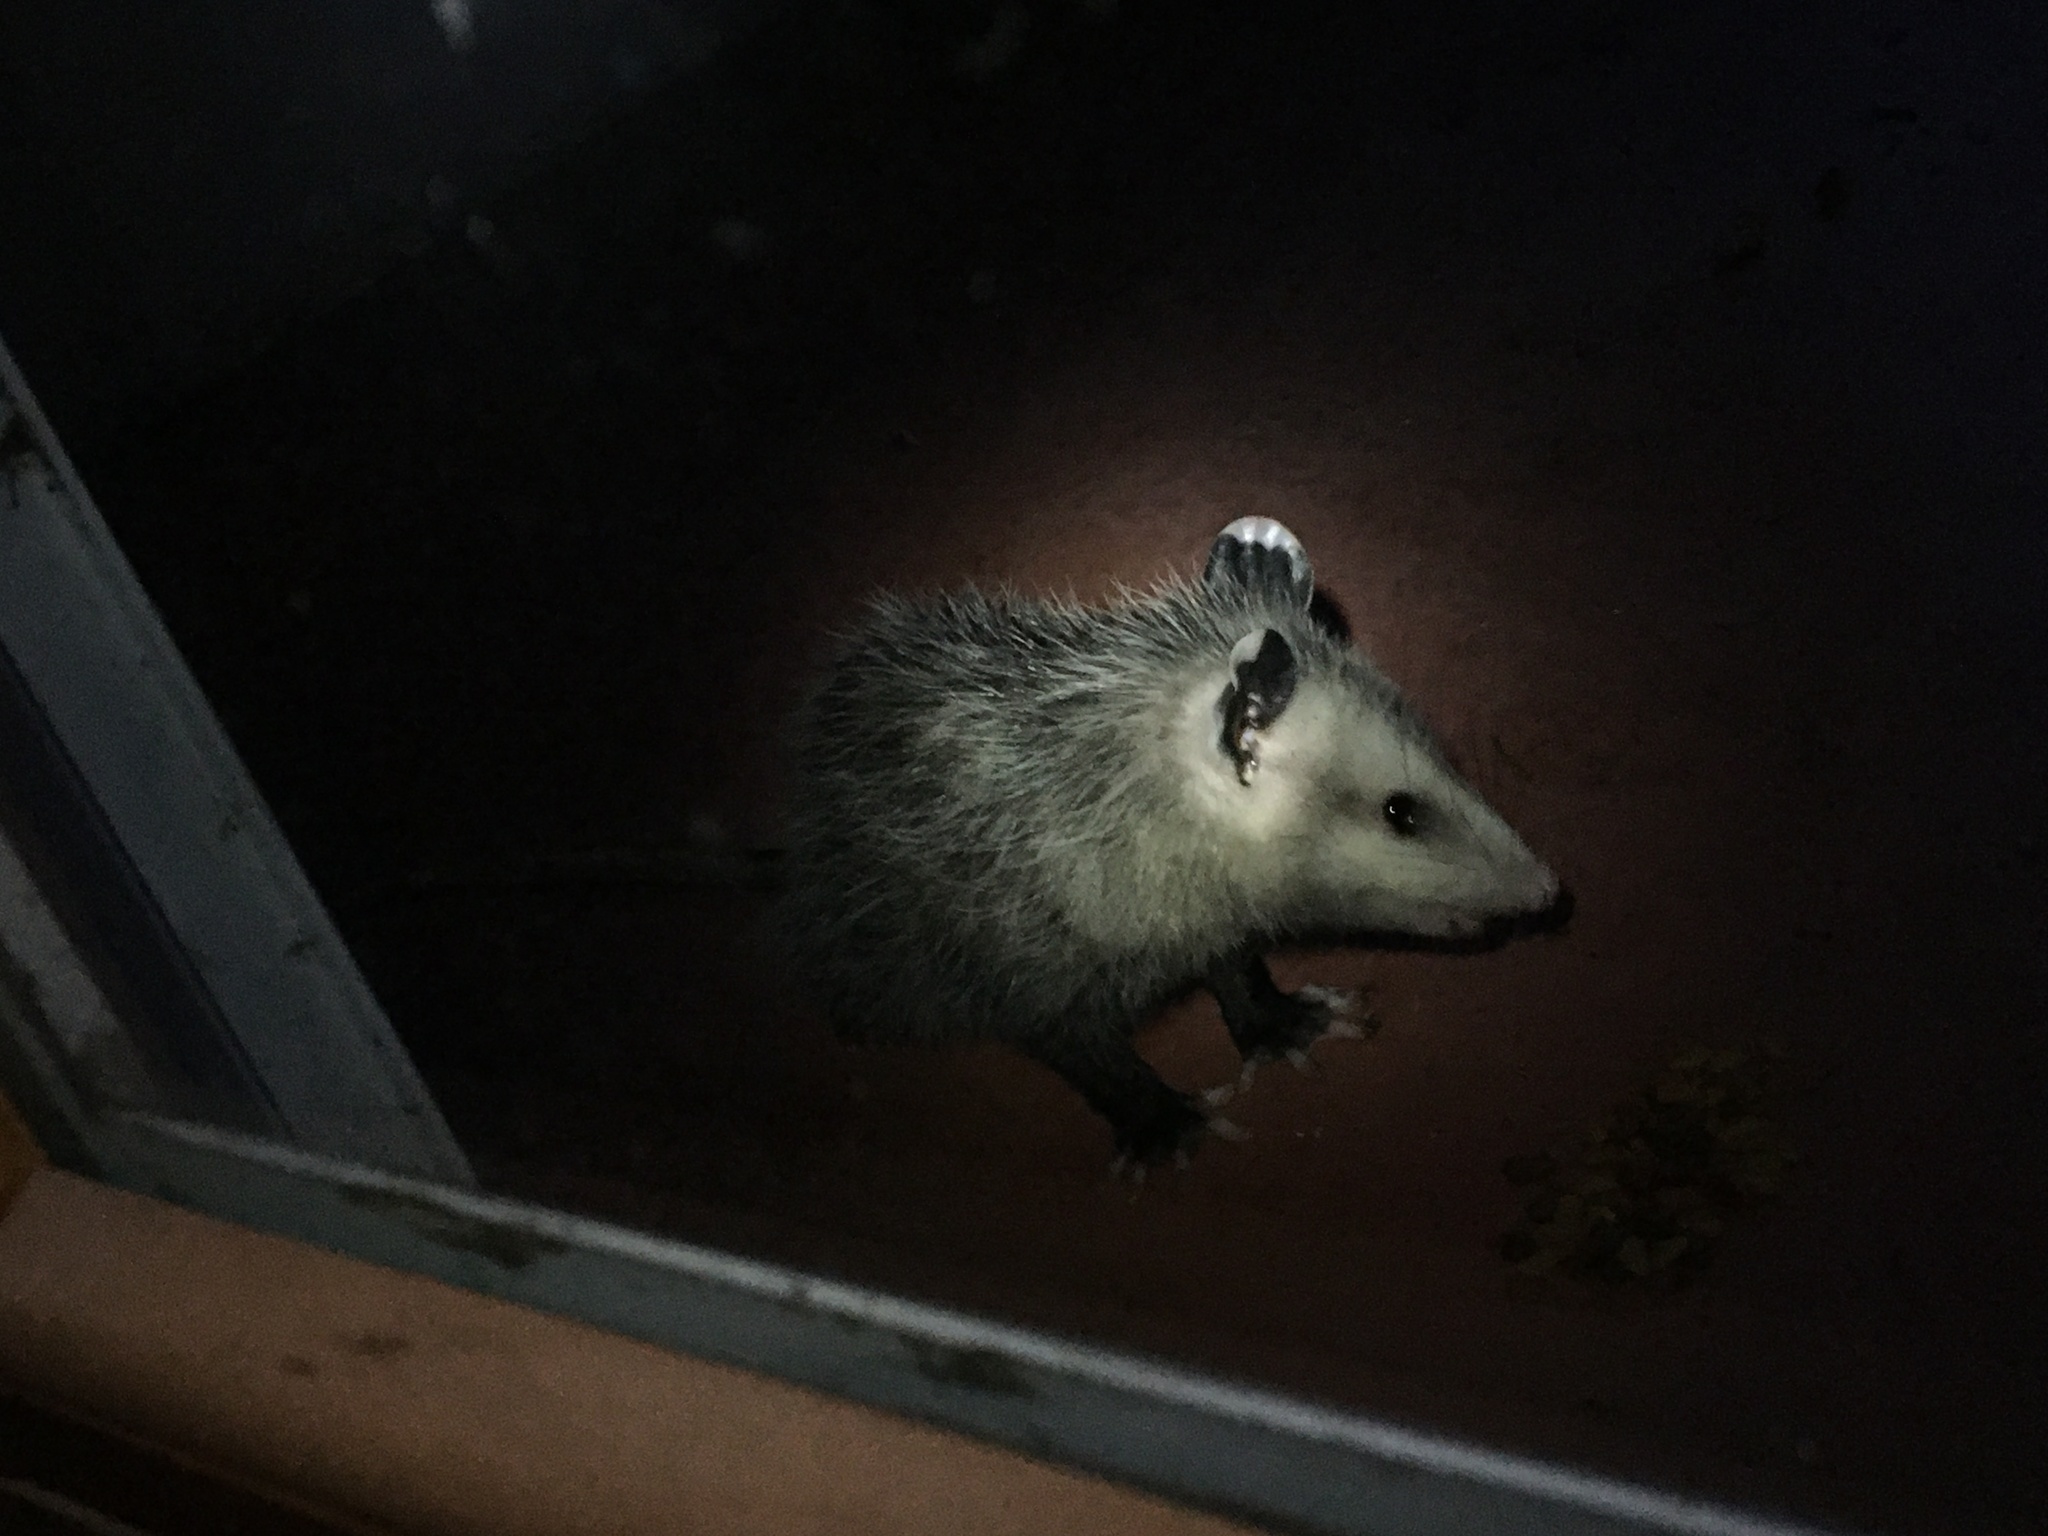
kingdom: Animalia
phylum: Chordata
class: Mammalia
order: Didelphimorphia
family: Didelphidae
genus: Didelphis
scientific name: Didelphis virginiana
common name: Virginia opossum
